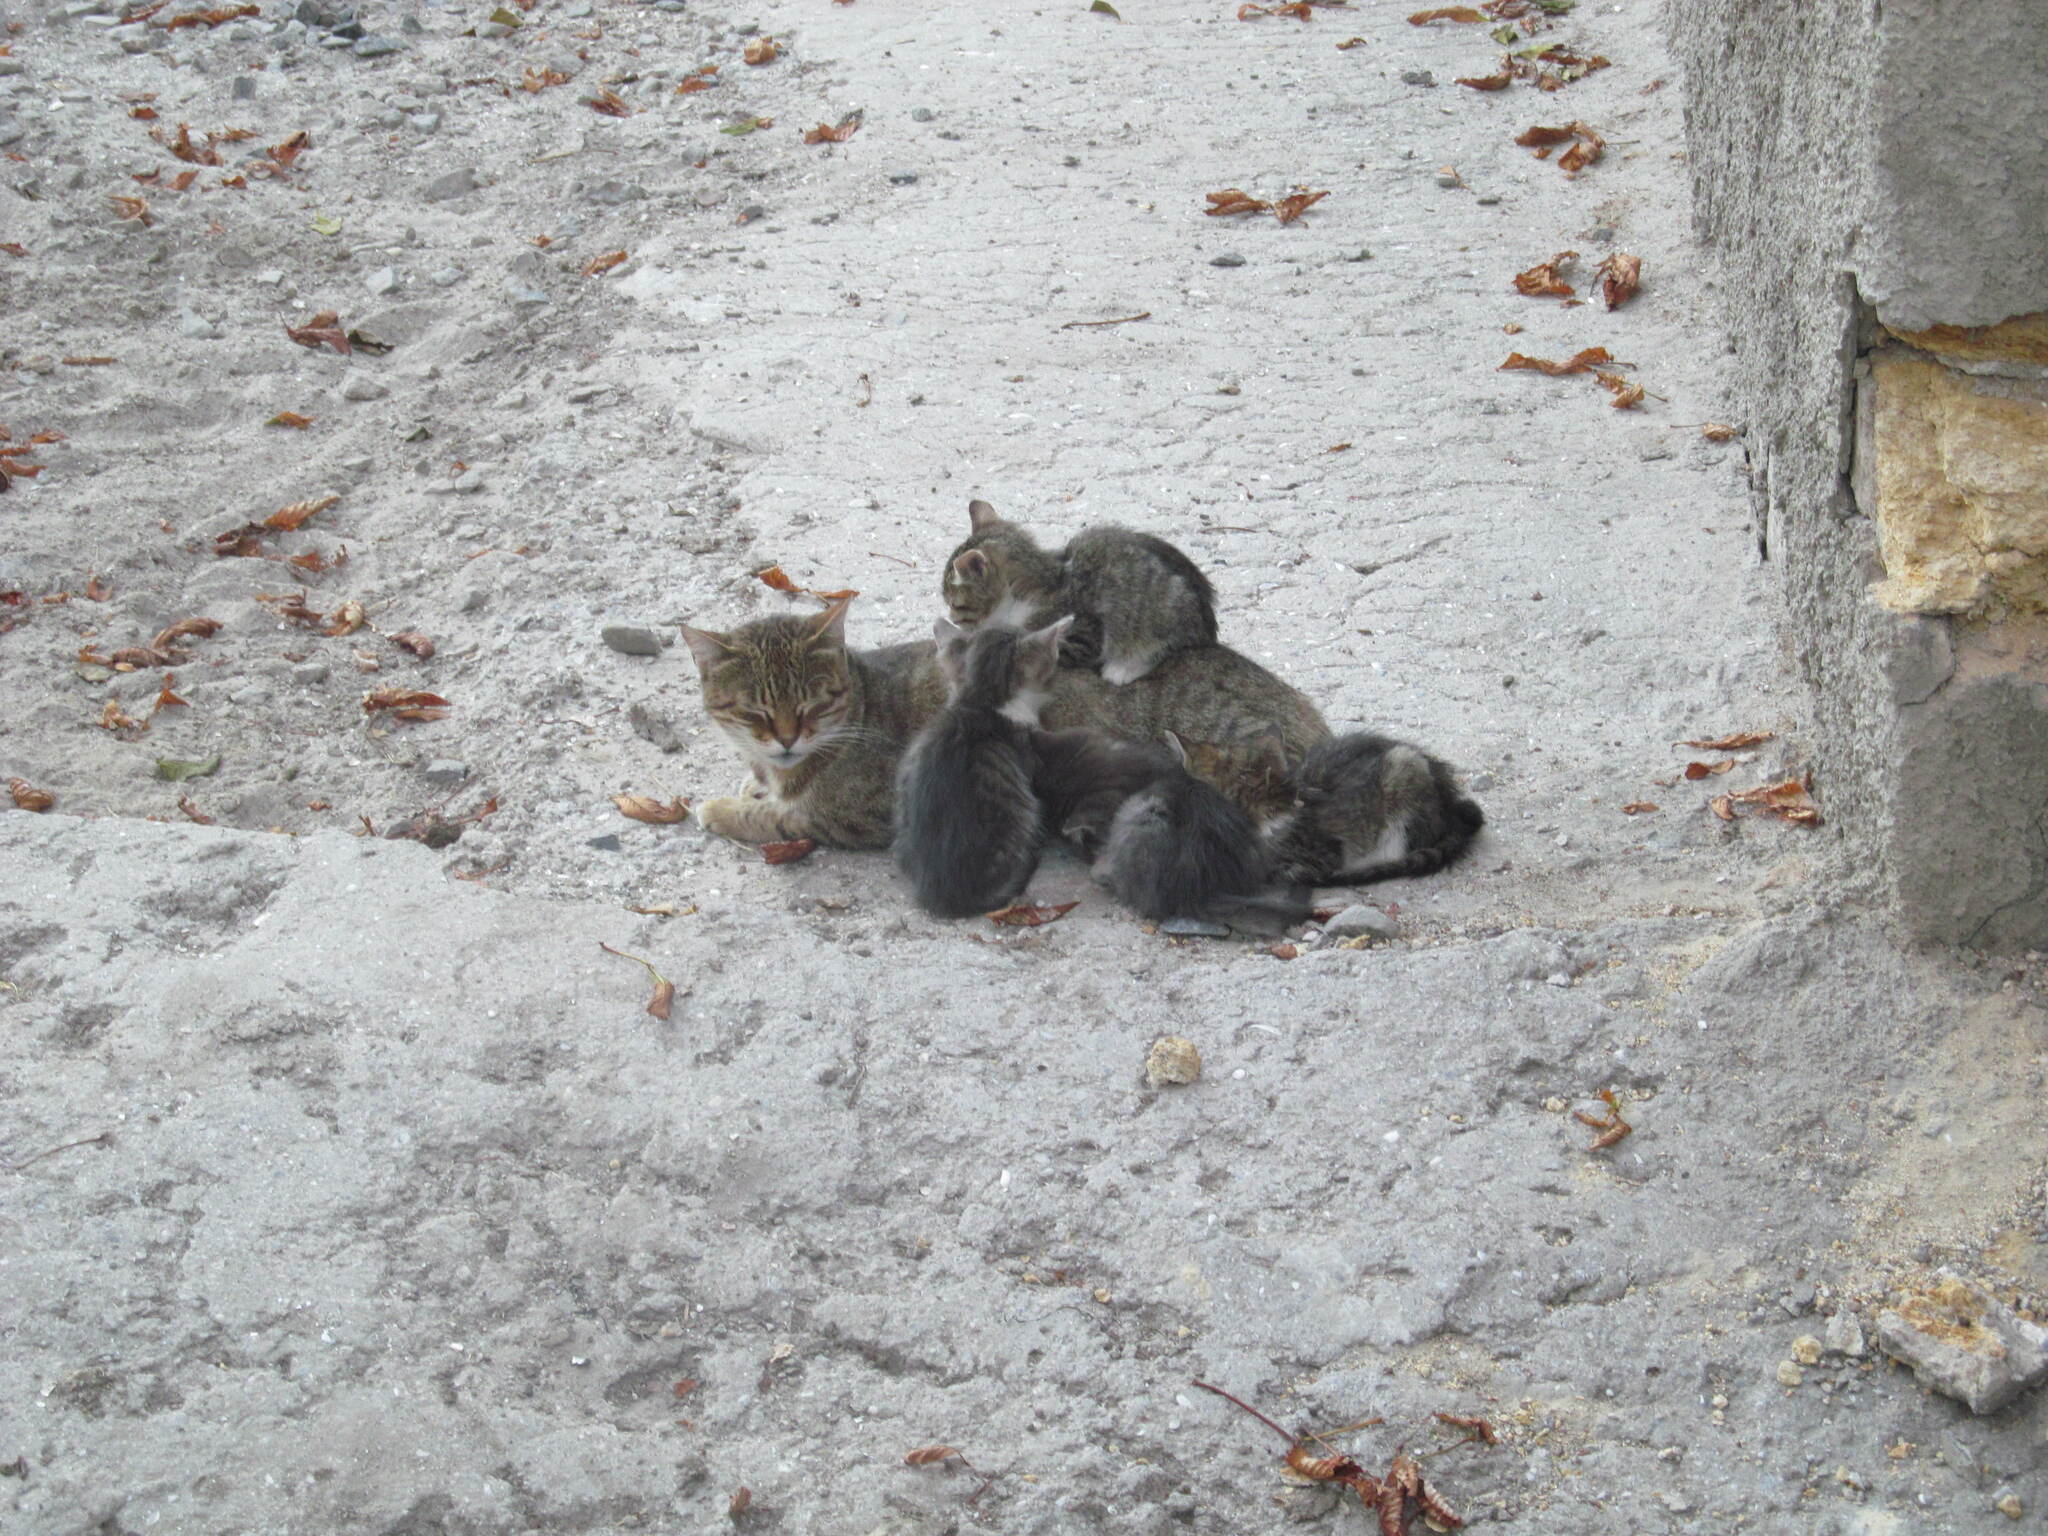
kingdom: Animalia
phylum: Chordata
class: Mammalia
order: Carnivora
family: Felidae
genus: Felis
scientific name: Felis catus
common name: Domestic cat
